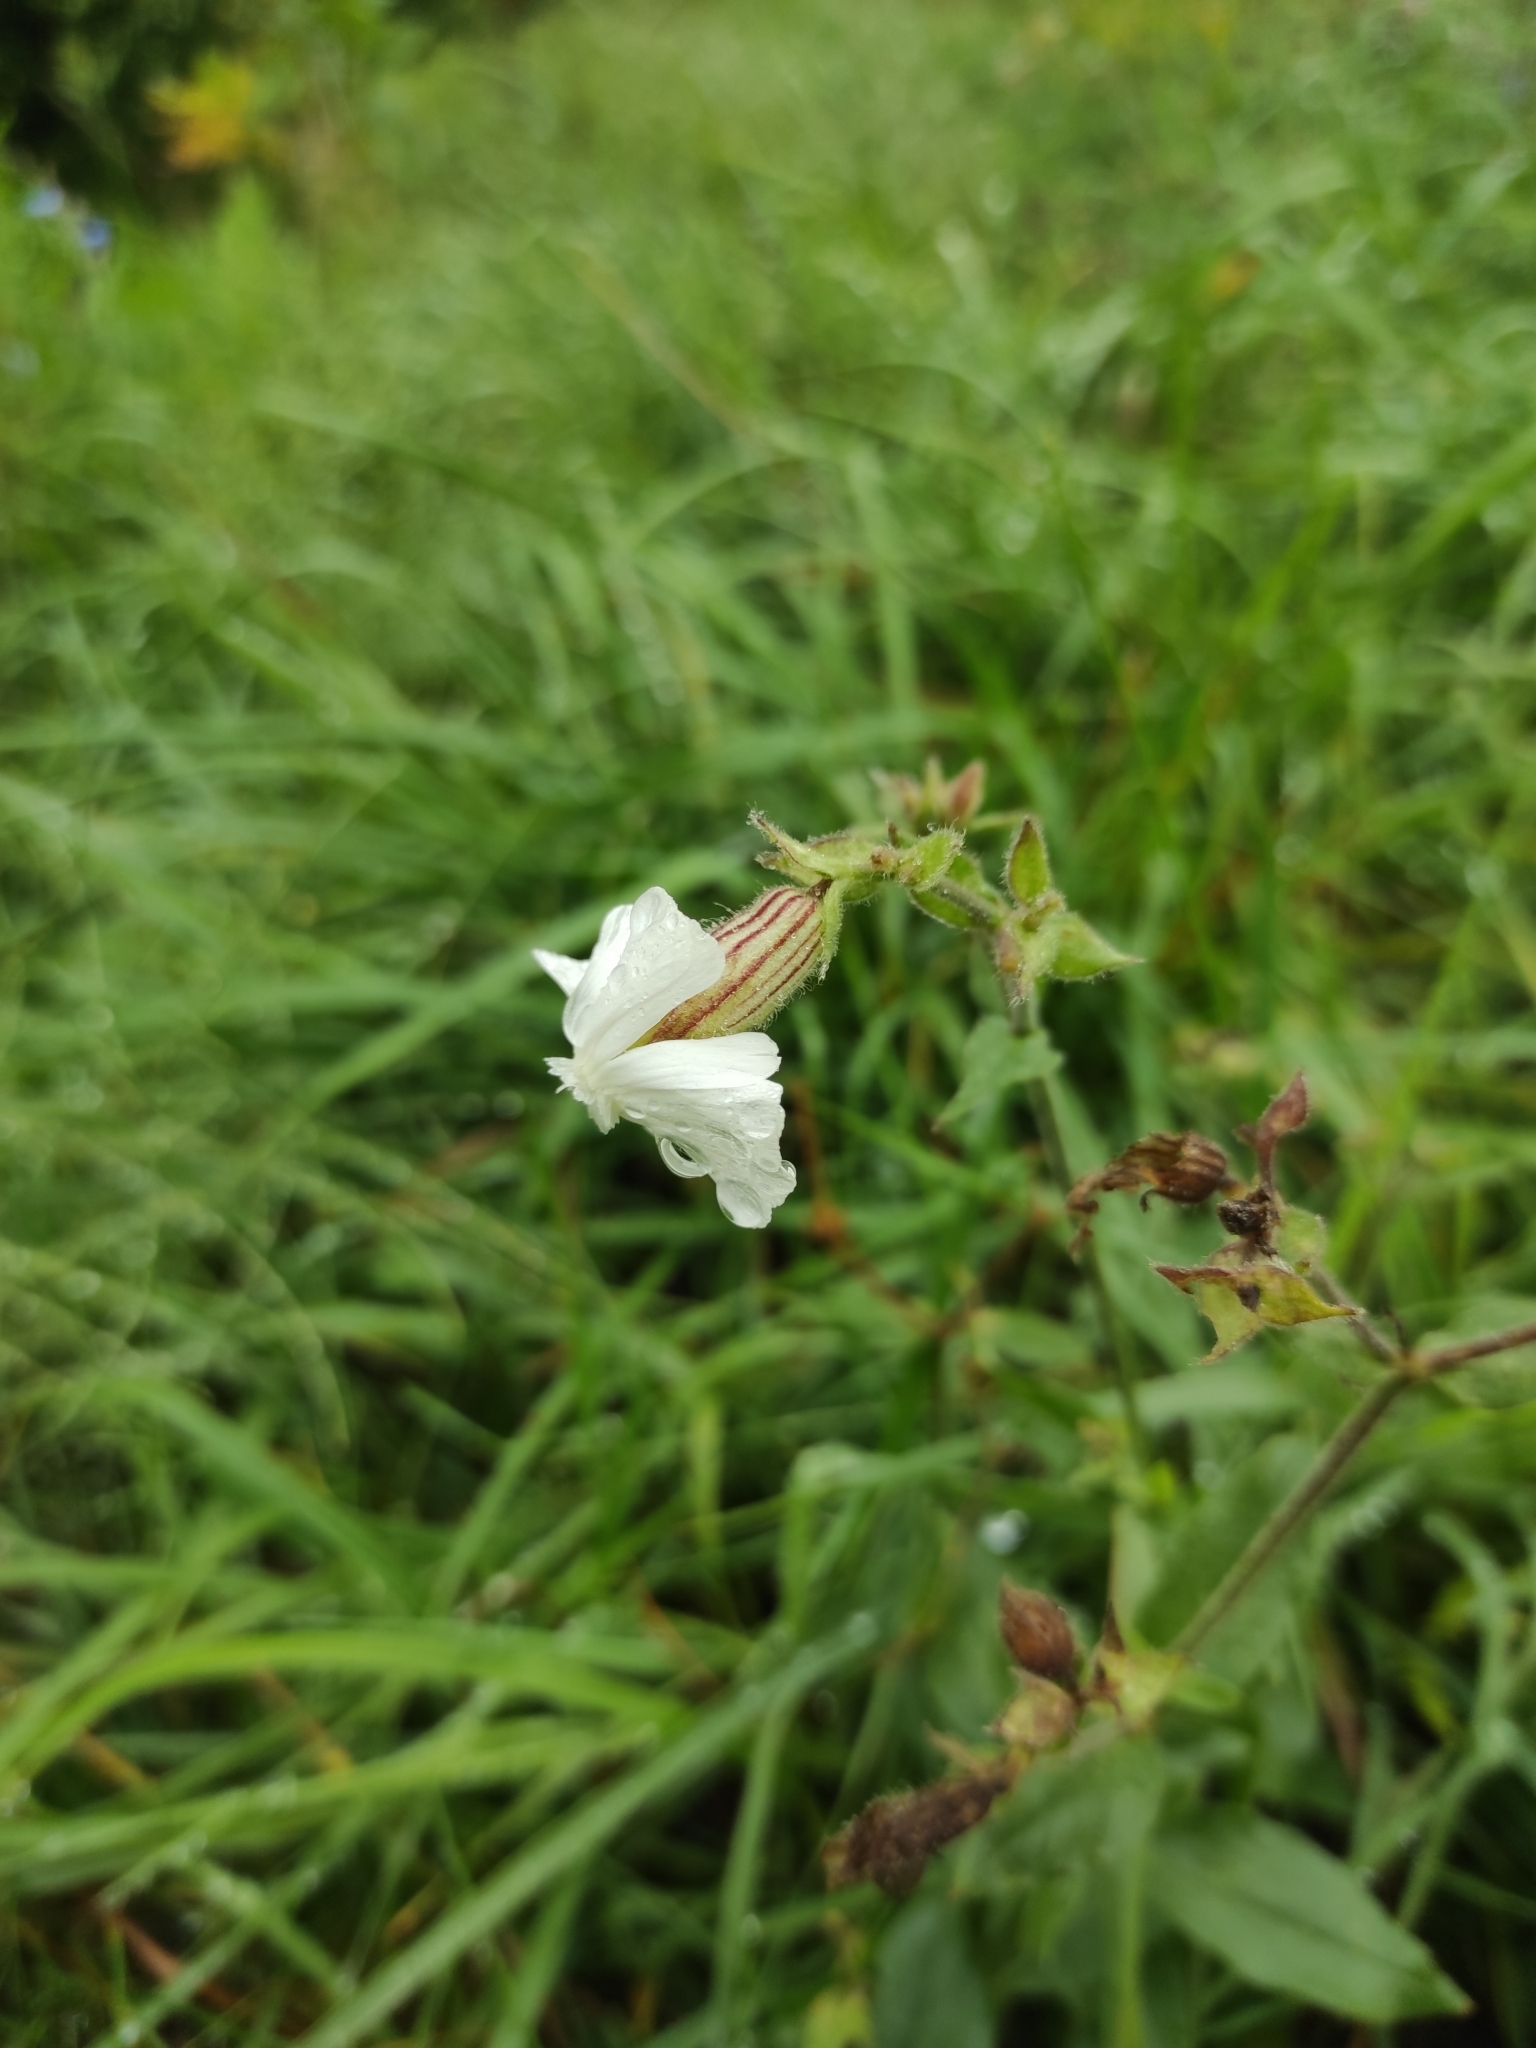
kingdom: Plantae
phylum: Tracheophyta
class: Magnoliopsida
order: Caryophyllales
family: Caryophyllaceae
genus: Silene
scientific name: Silene latifolia
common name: White campion
